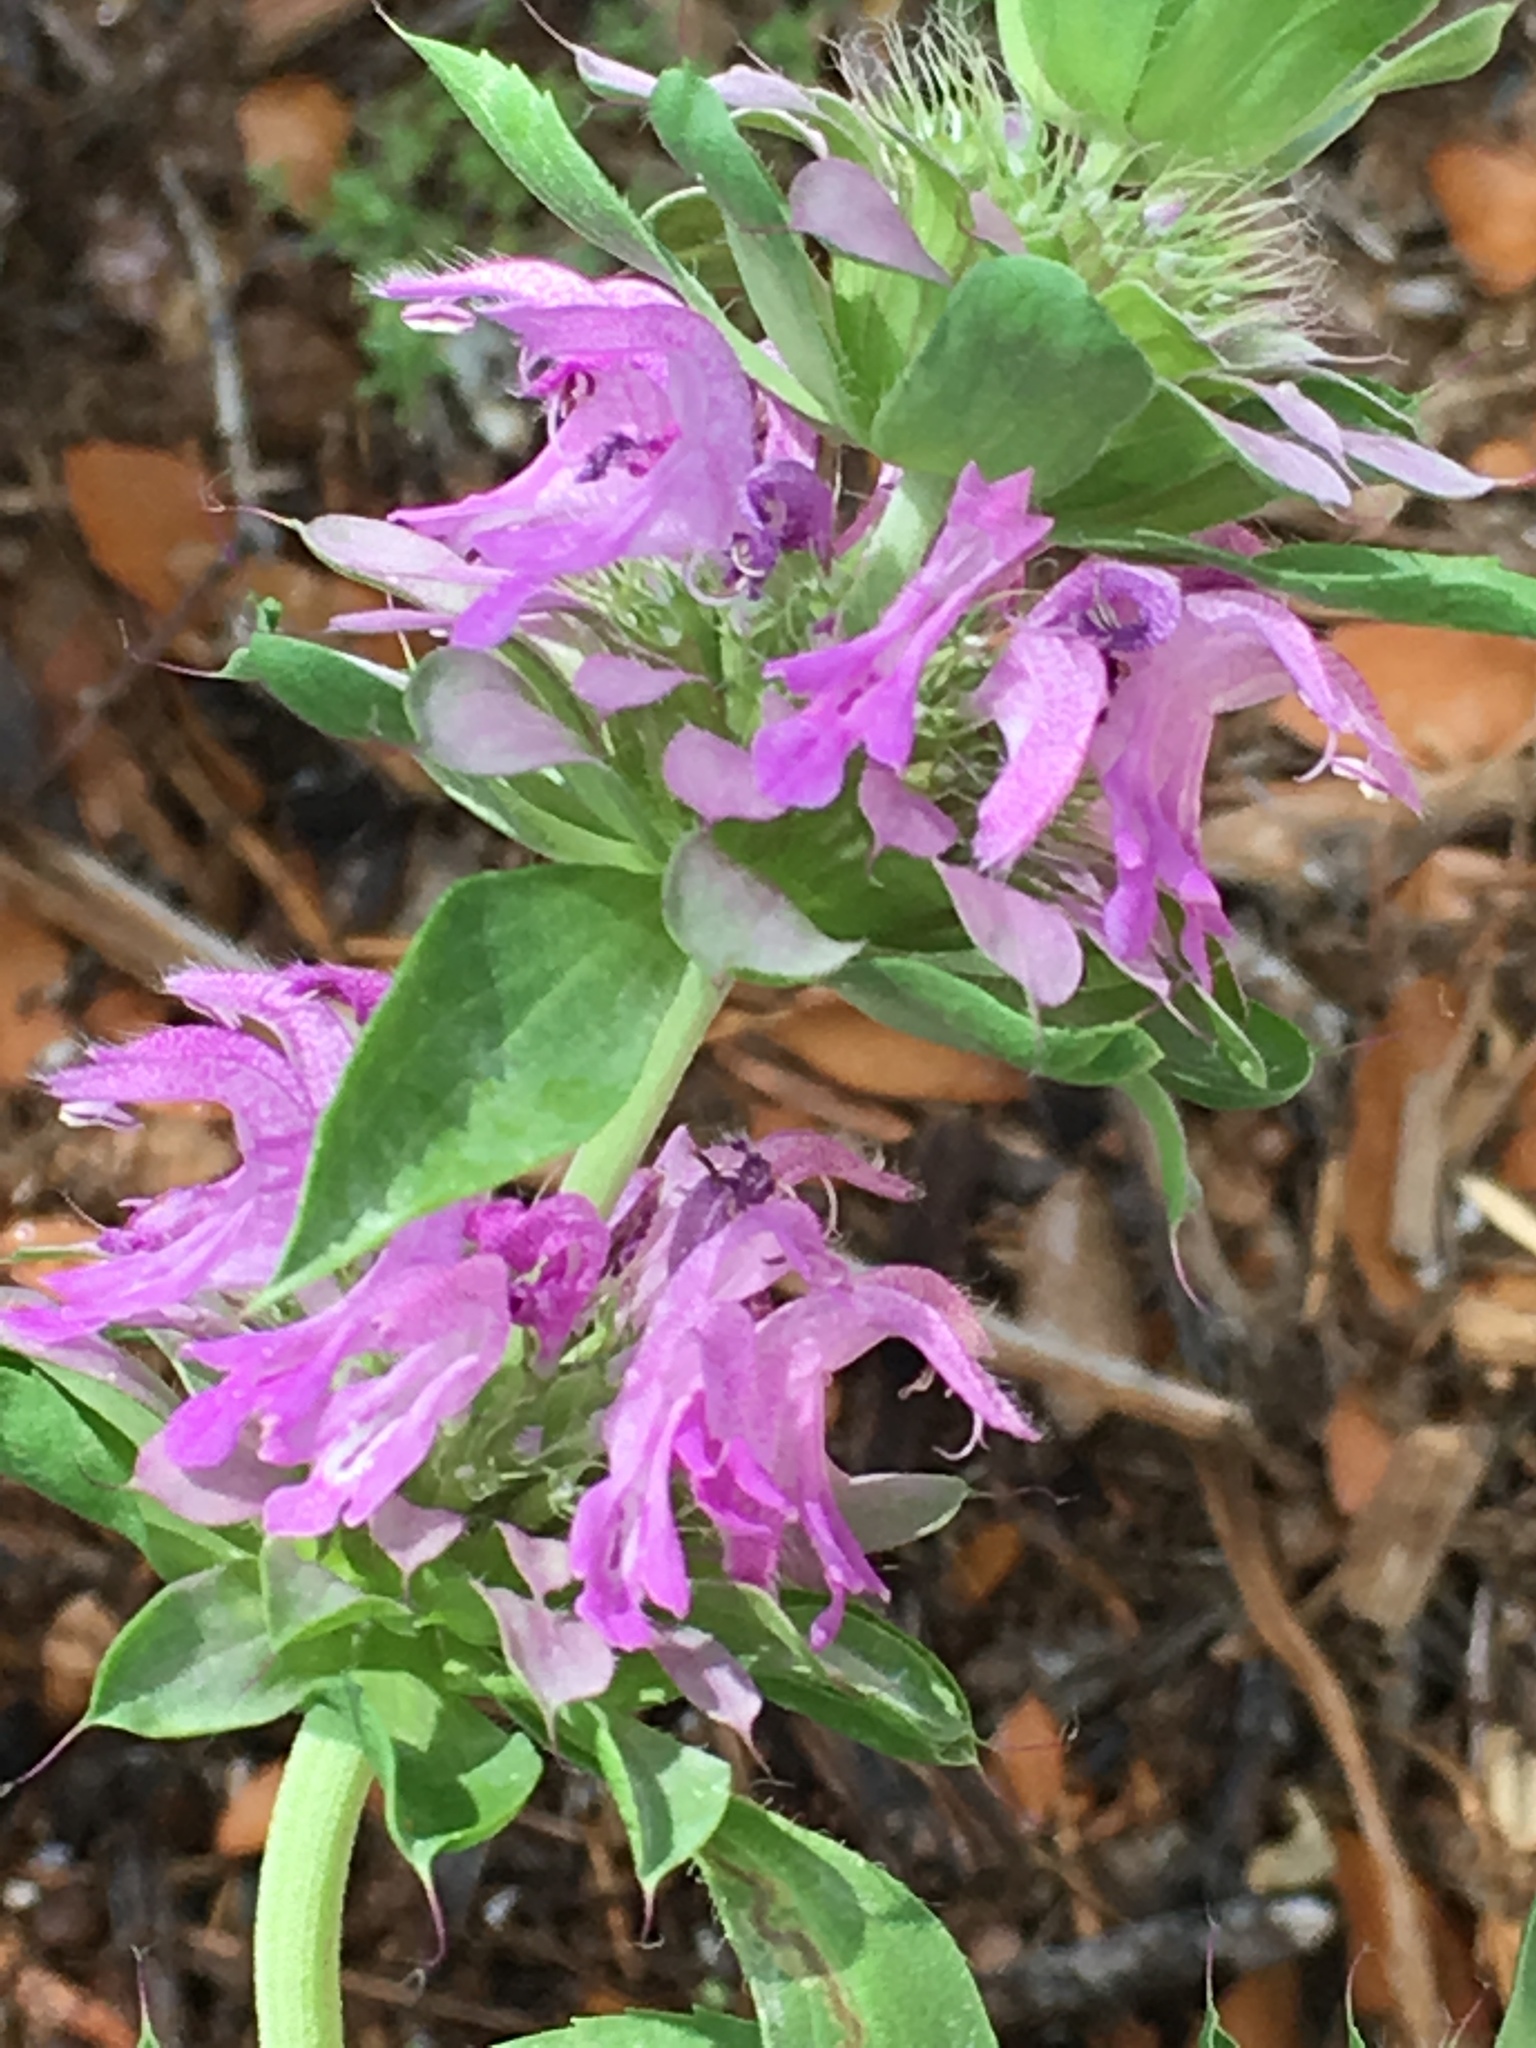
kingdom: Plantae
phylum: Tracheophyta
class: Magnoliopsida
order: Lamiales
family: Lamiaceae
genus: Monarda
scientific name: Monarda citriodora
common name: Lemon beebalm
